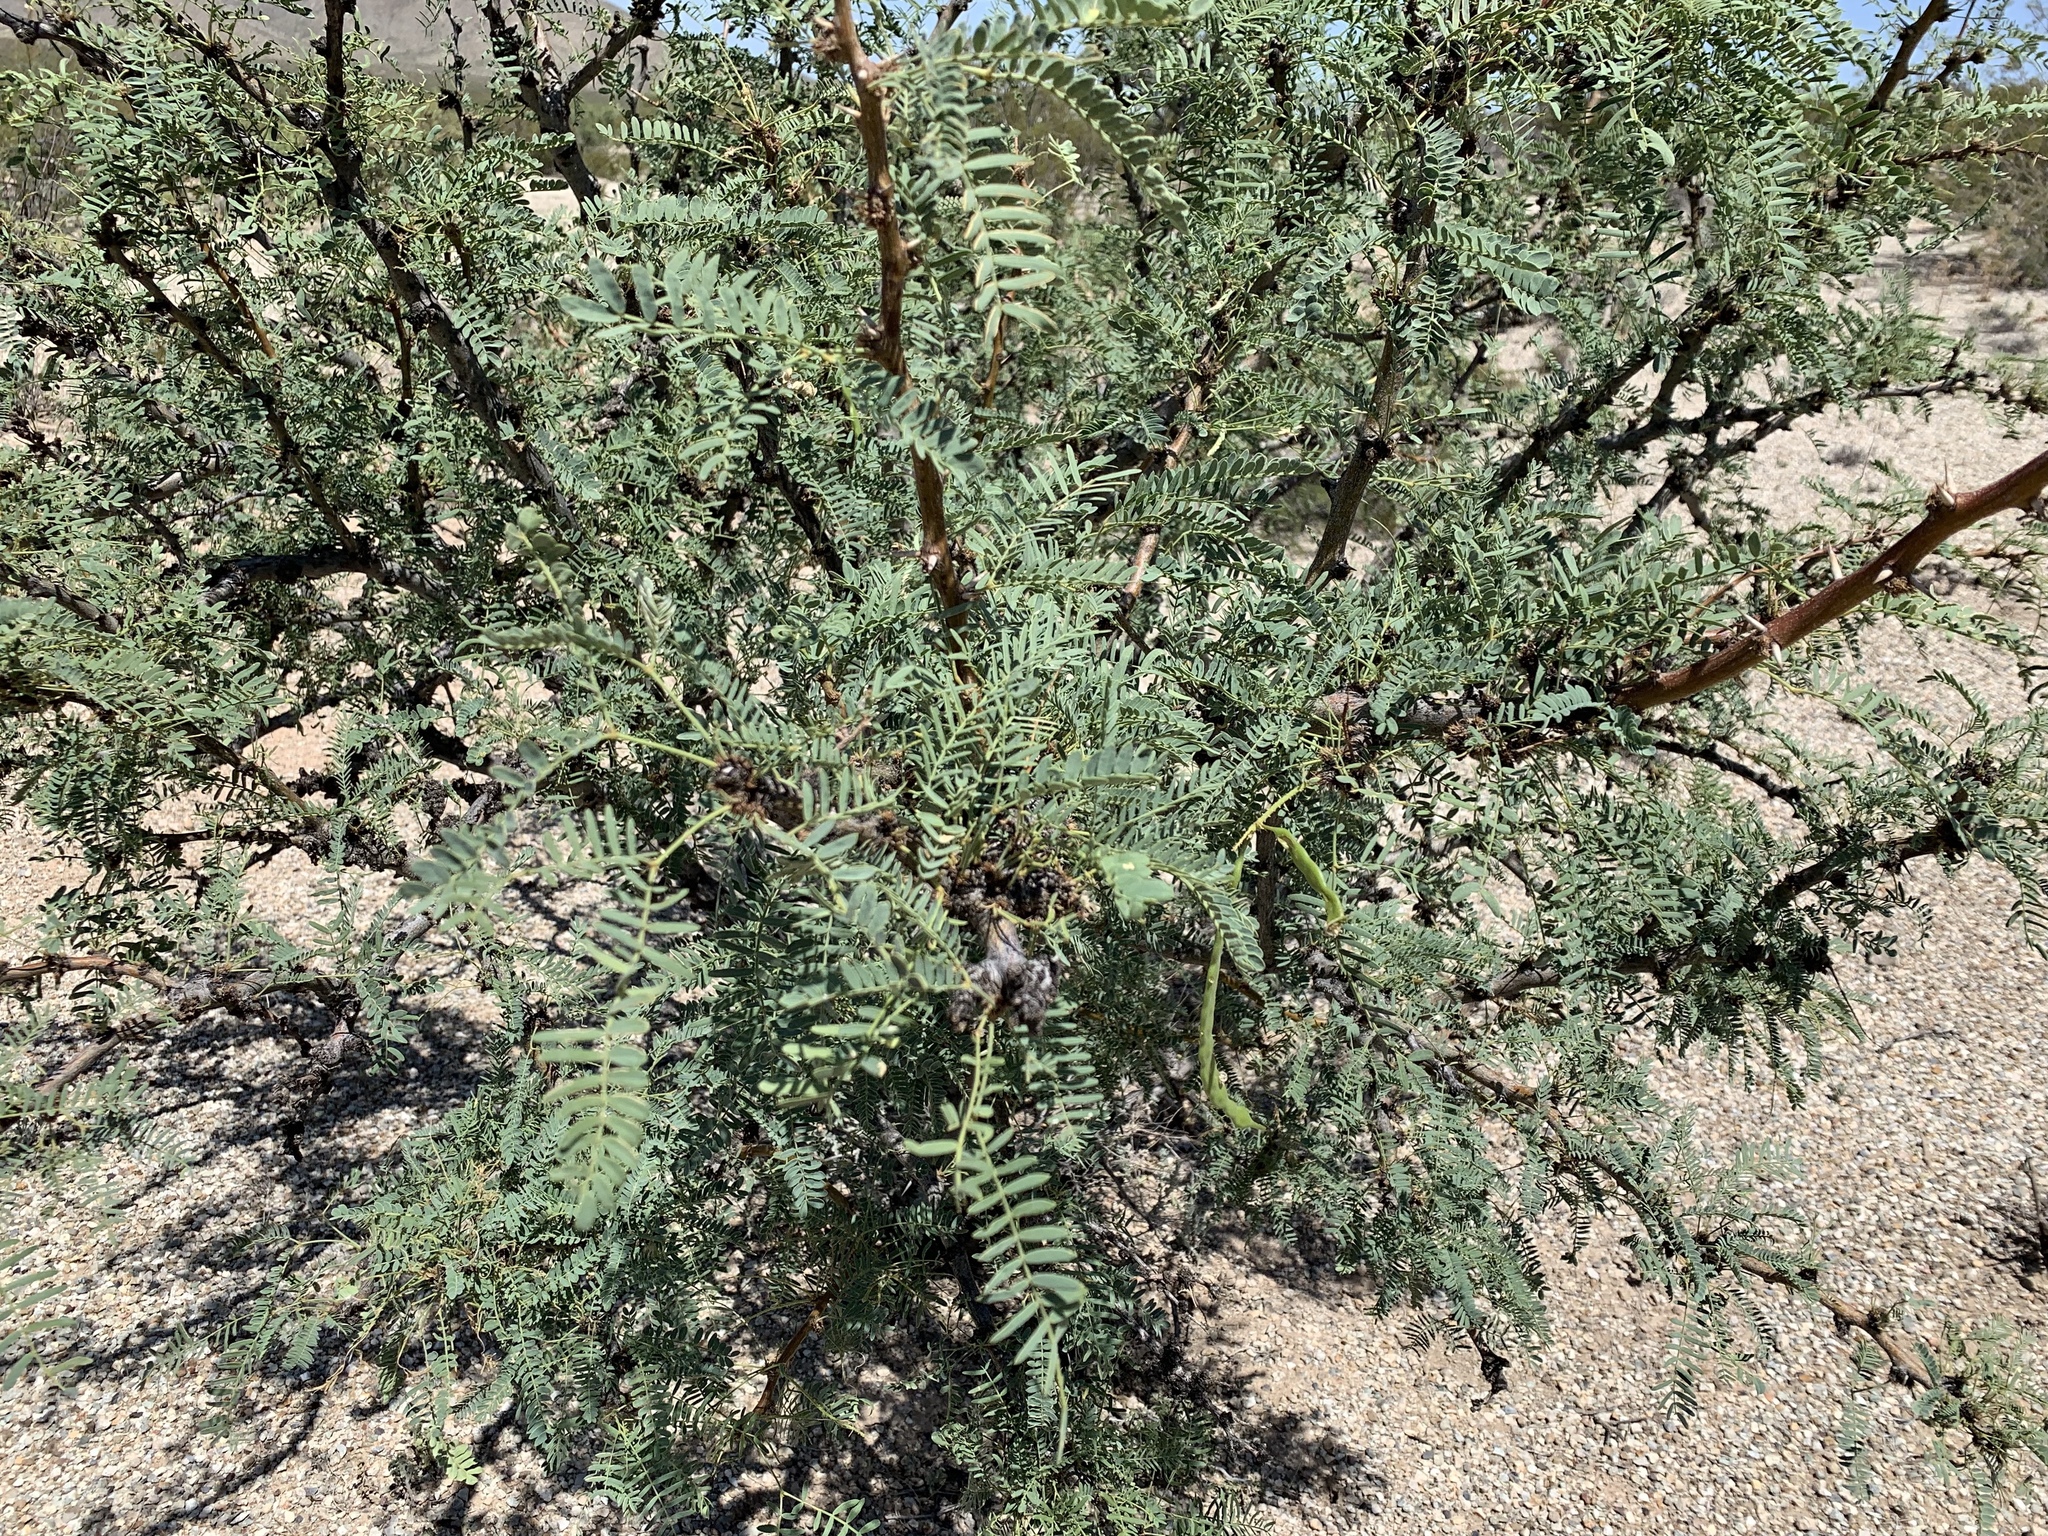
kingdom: Plantae
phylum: Tracheophyta
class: Magnoliopsida
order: Fabales
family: Fabaceae
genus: Prosopis
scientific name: Prosopis glandulosa
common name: Honey mesquite
